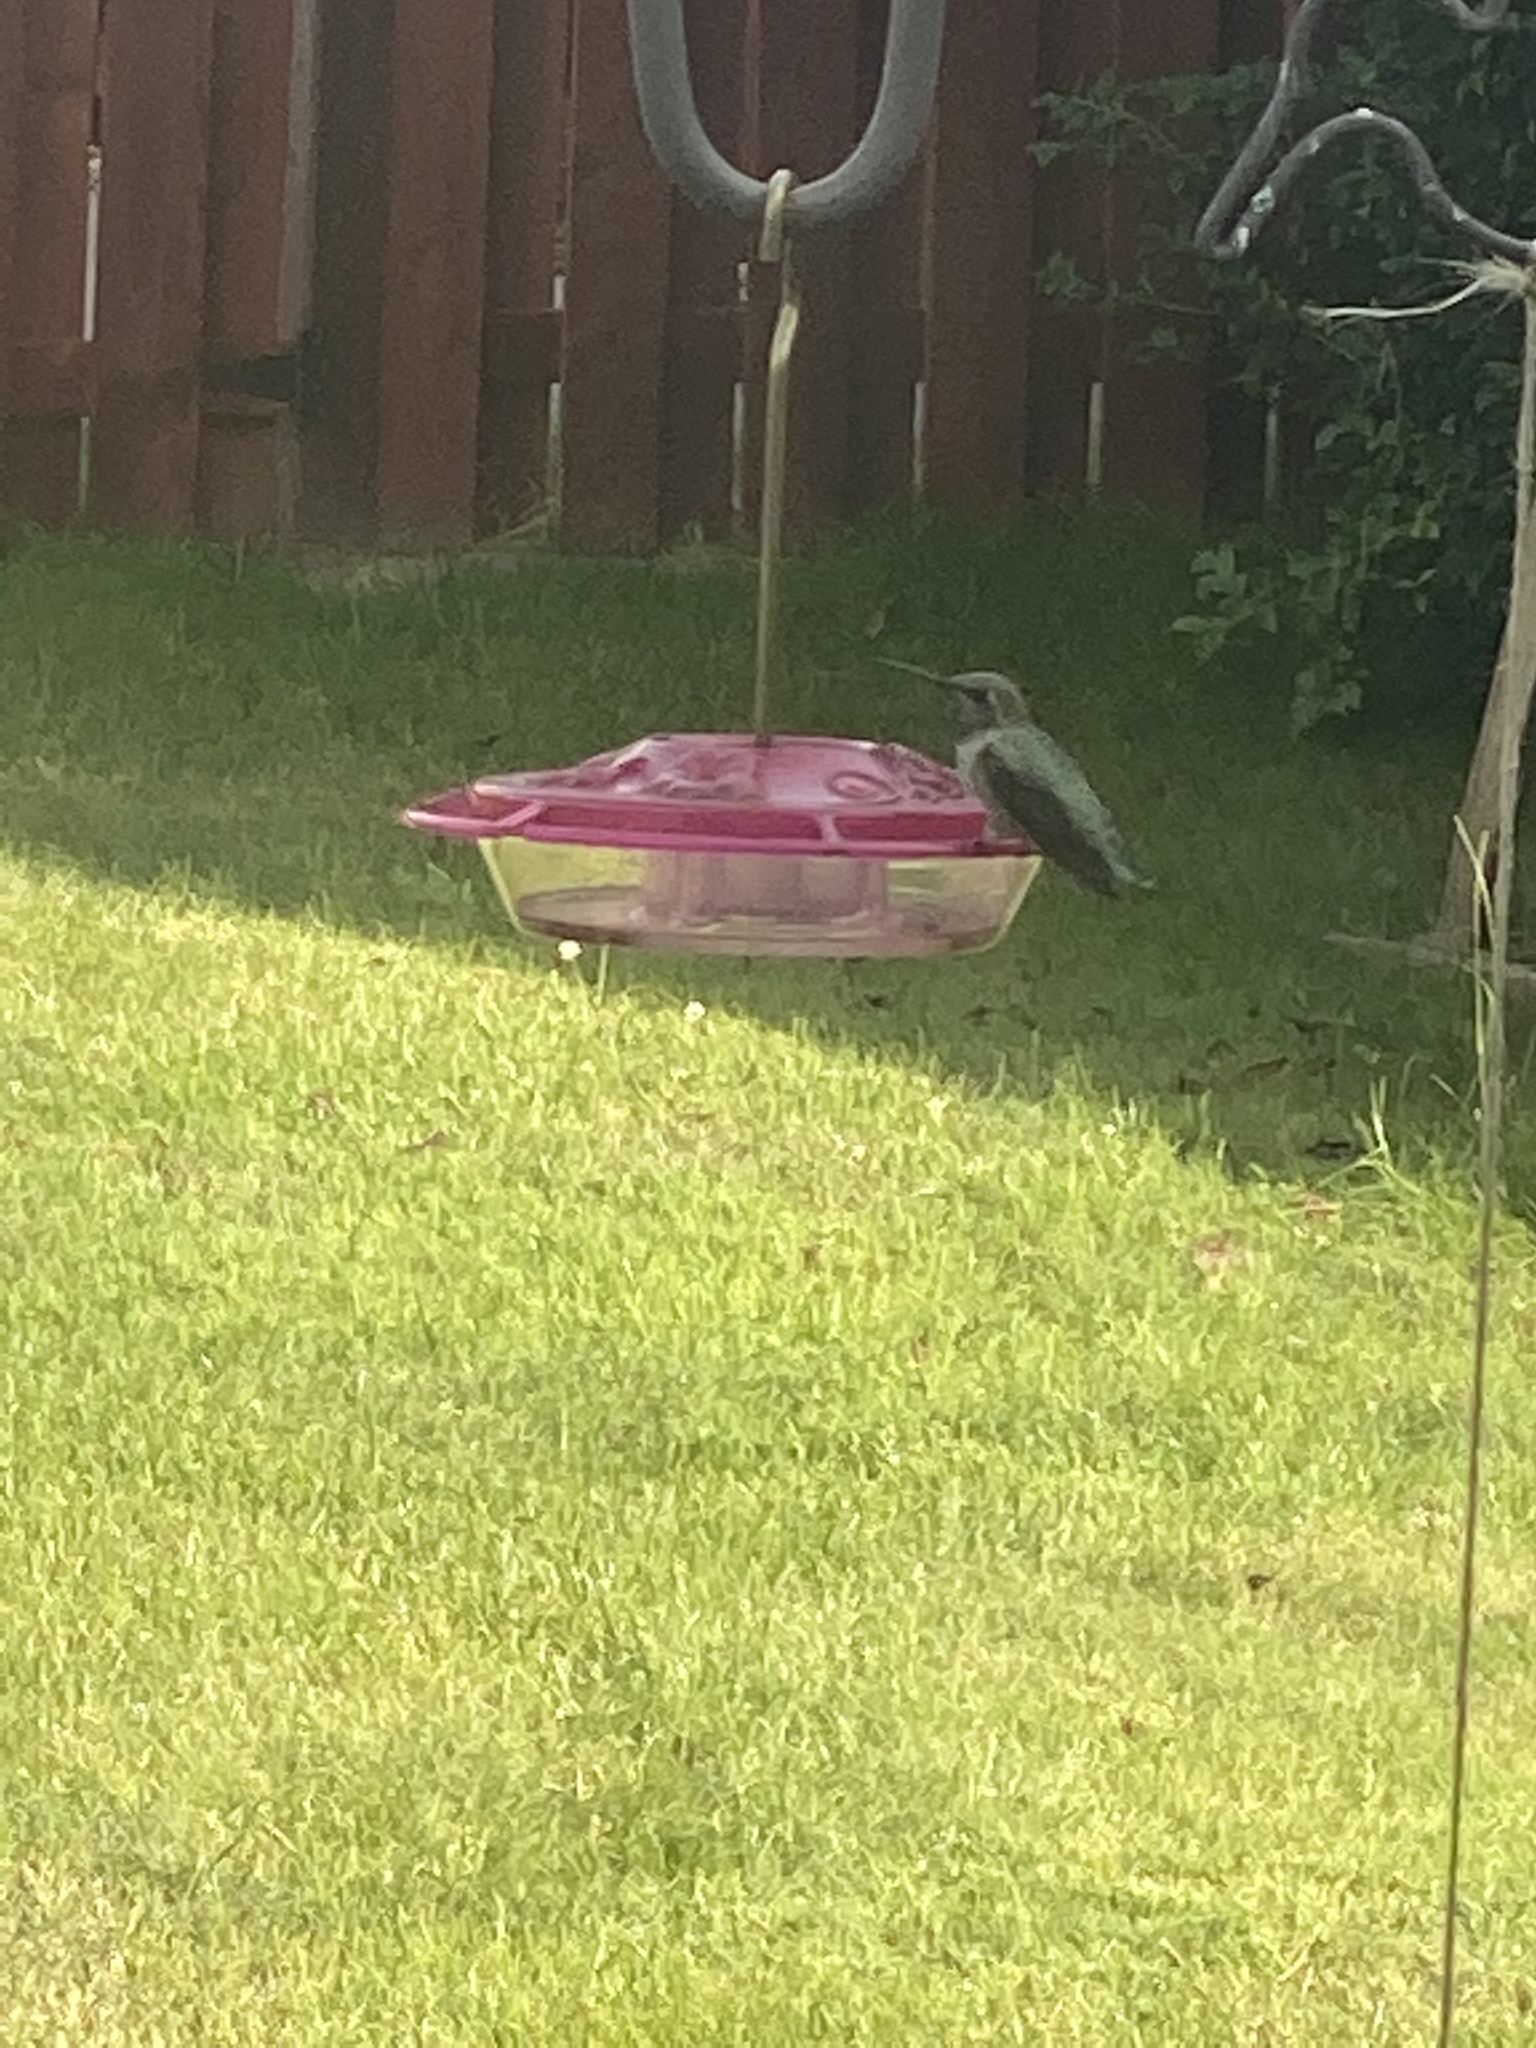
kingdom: Animalia
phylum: Chordata
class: Aves
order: Apodiformes
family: Trochilidae
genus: Calypte
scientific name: Calypte anna
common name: Anna's hummingbird
